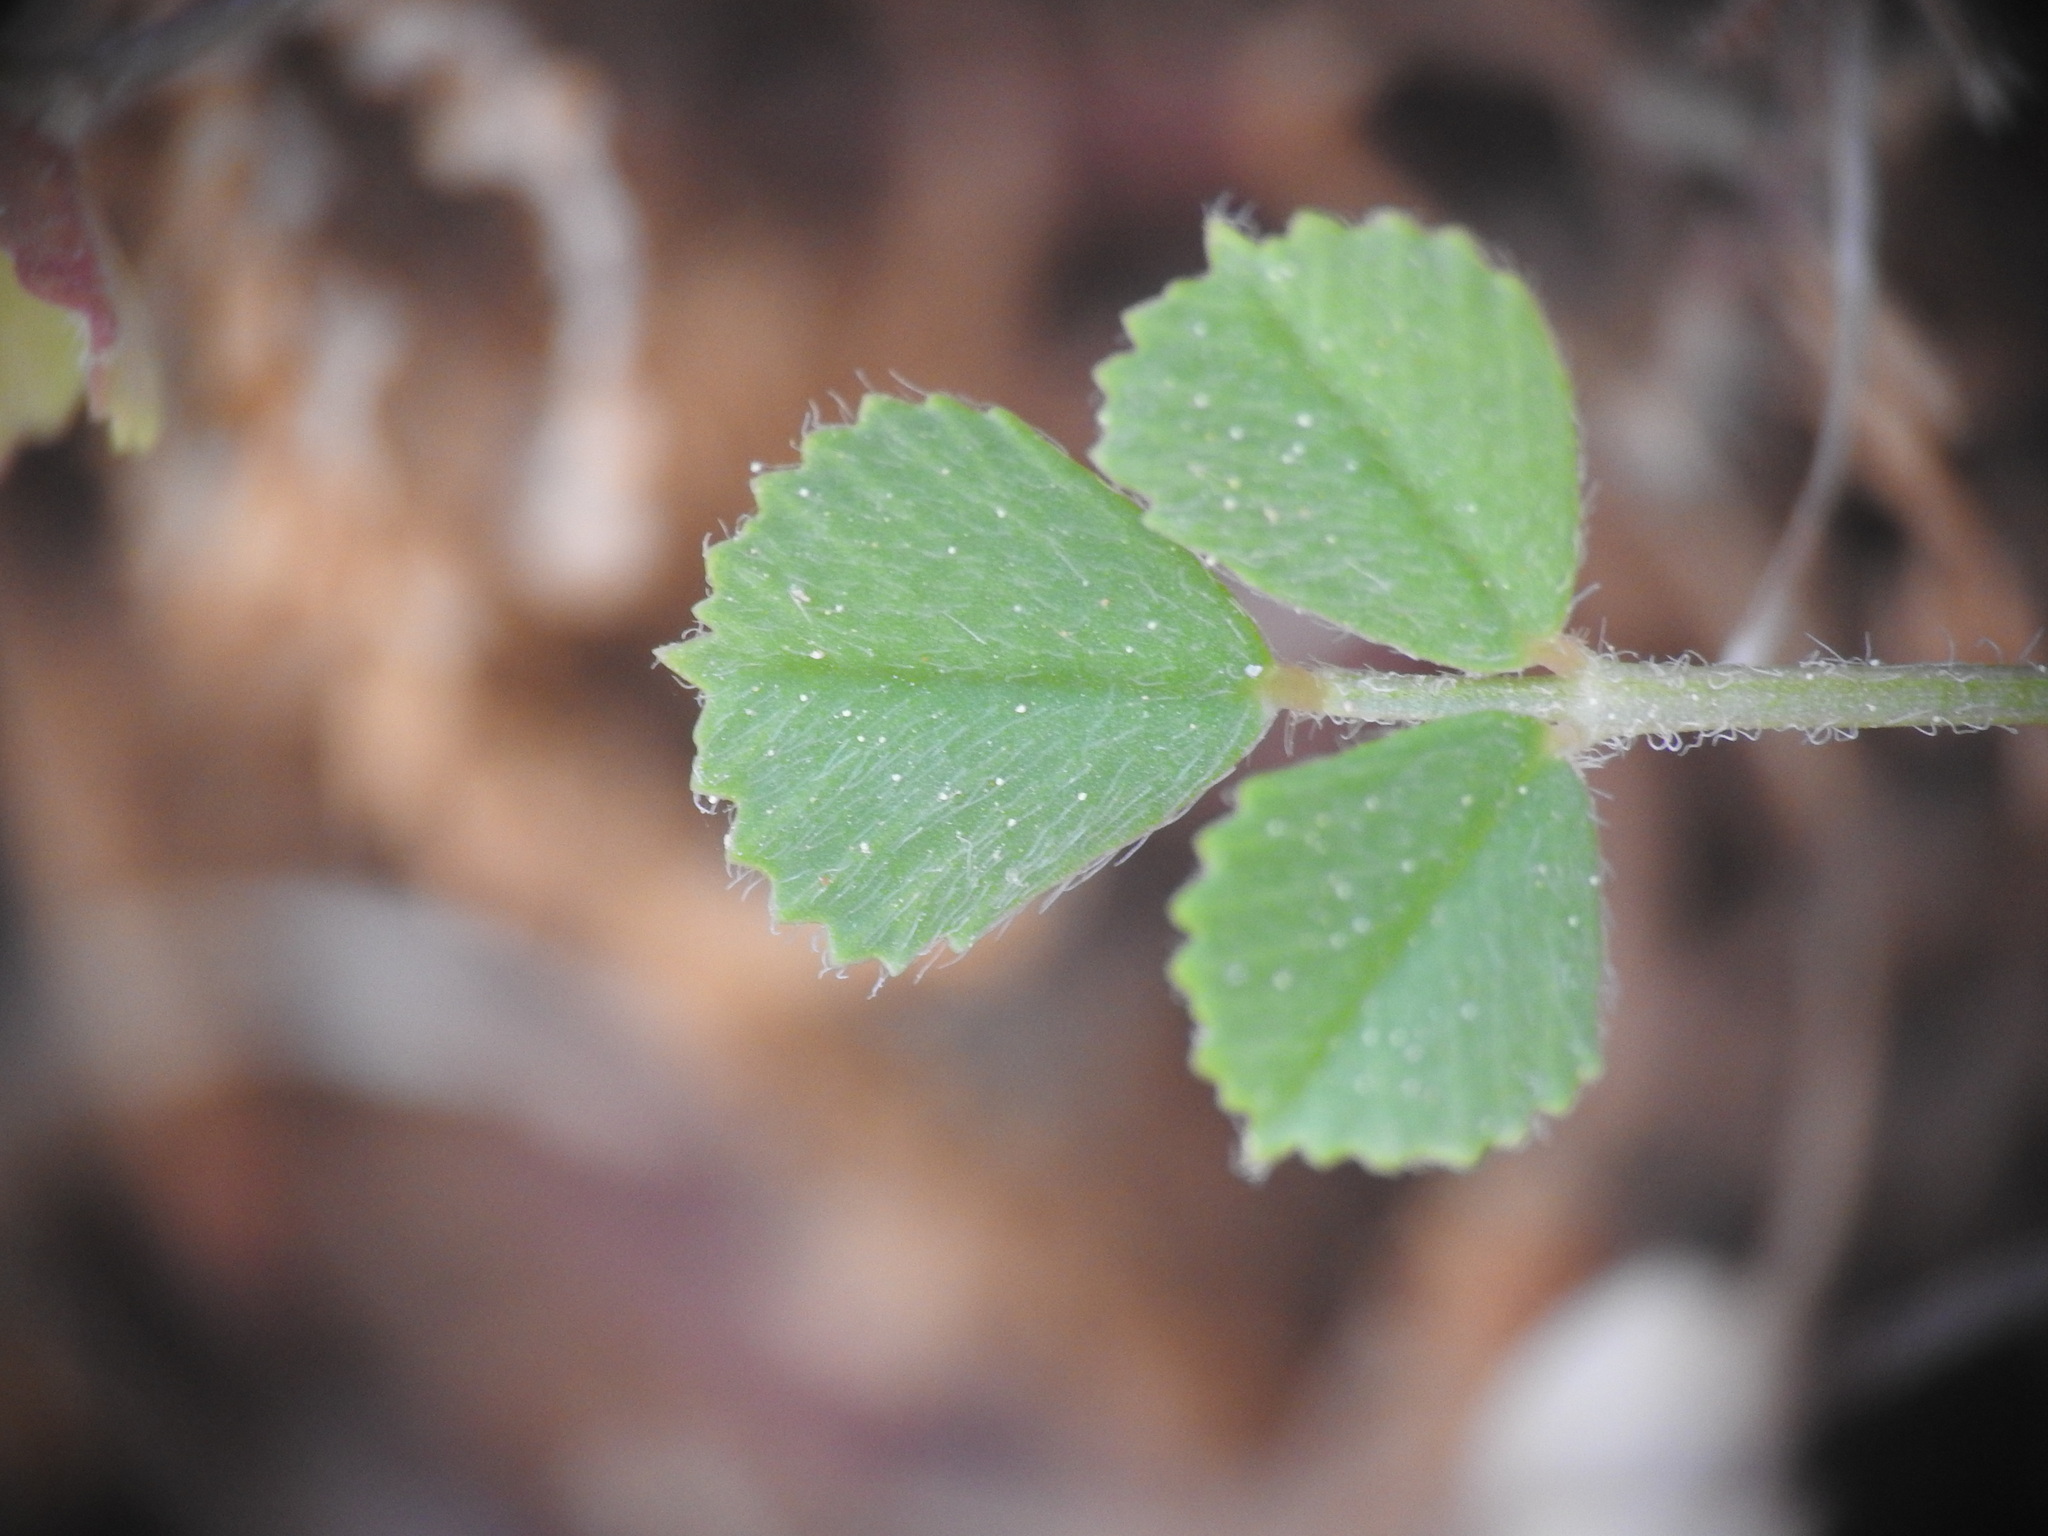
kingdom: Plantae
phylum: Tracheophyta
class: Magnoliopsida
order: Fabales
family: Fabaceae
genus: Medicago
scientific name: Medicago monspeliaca
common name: Hairy medick
